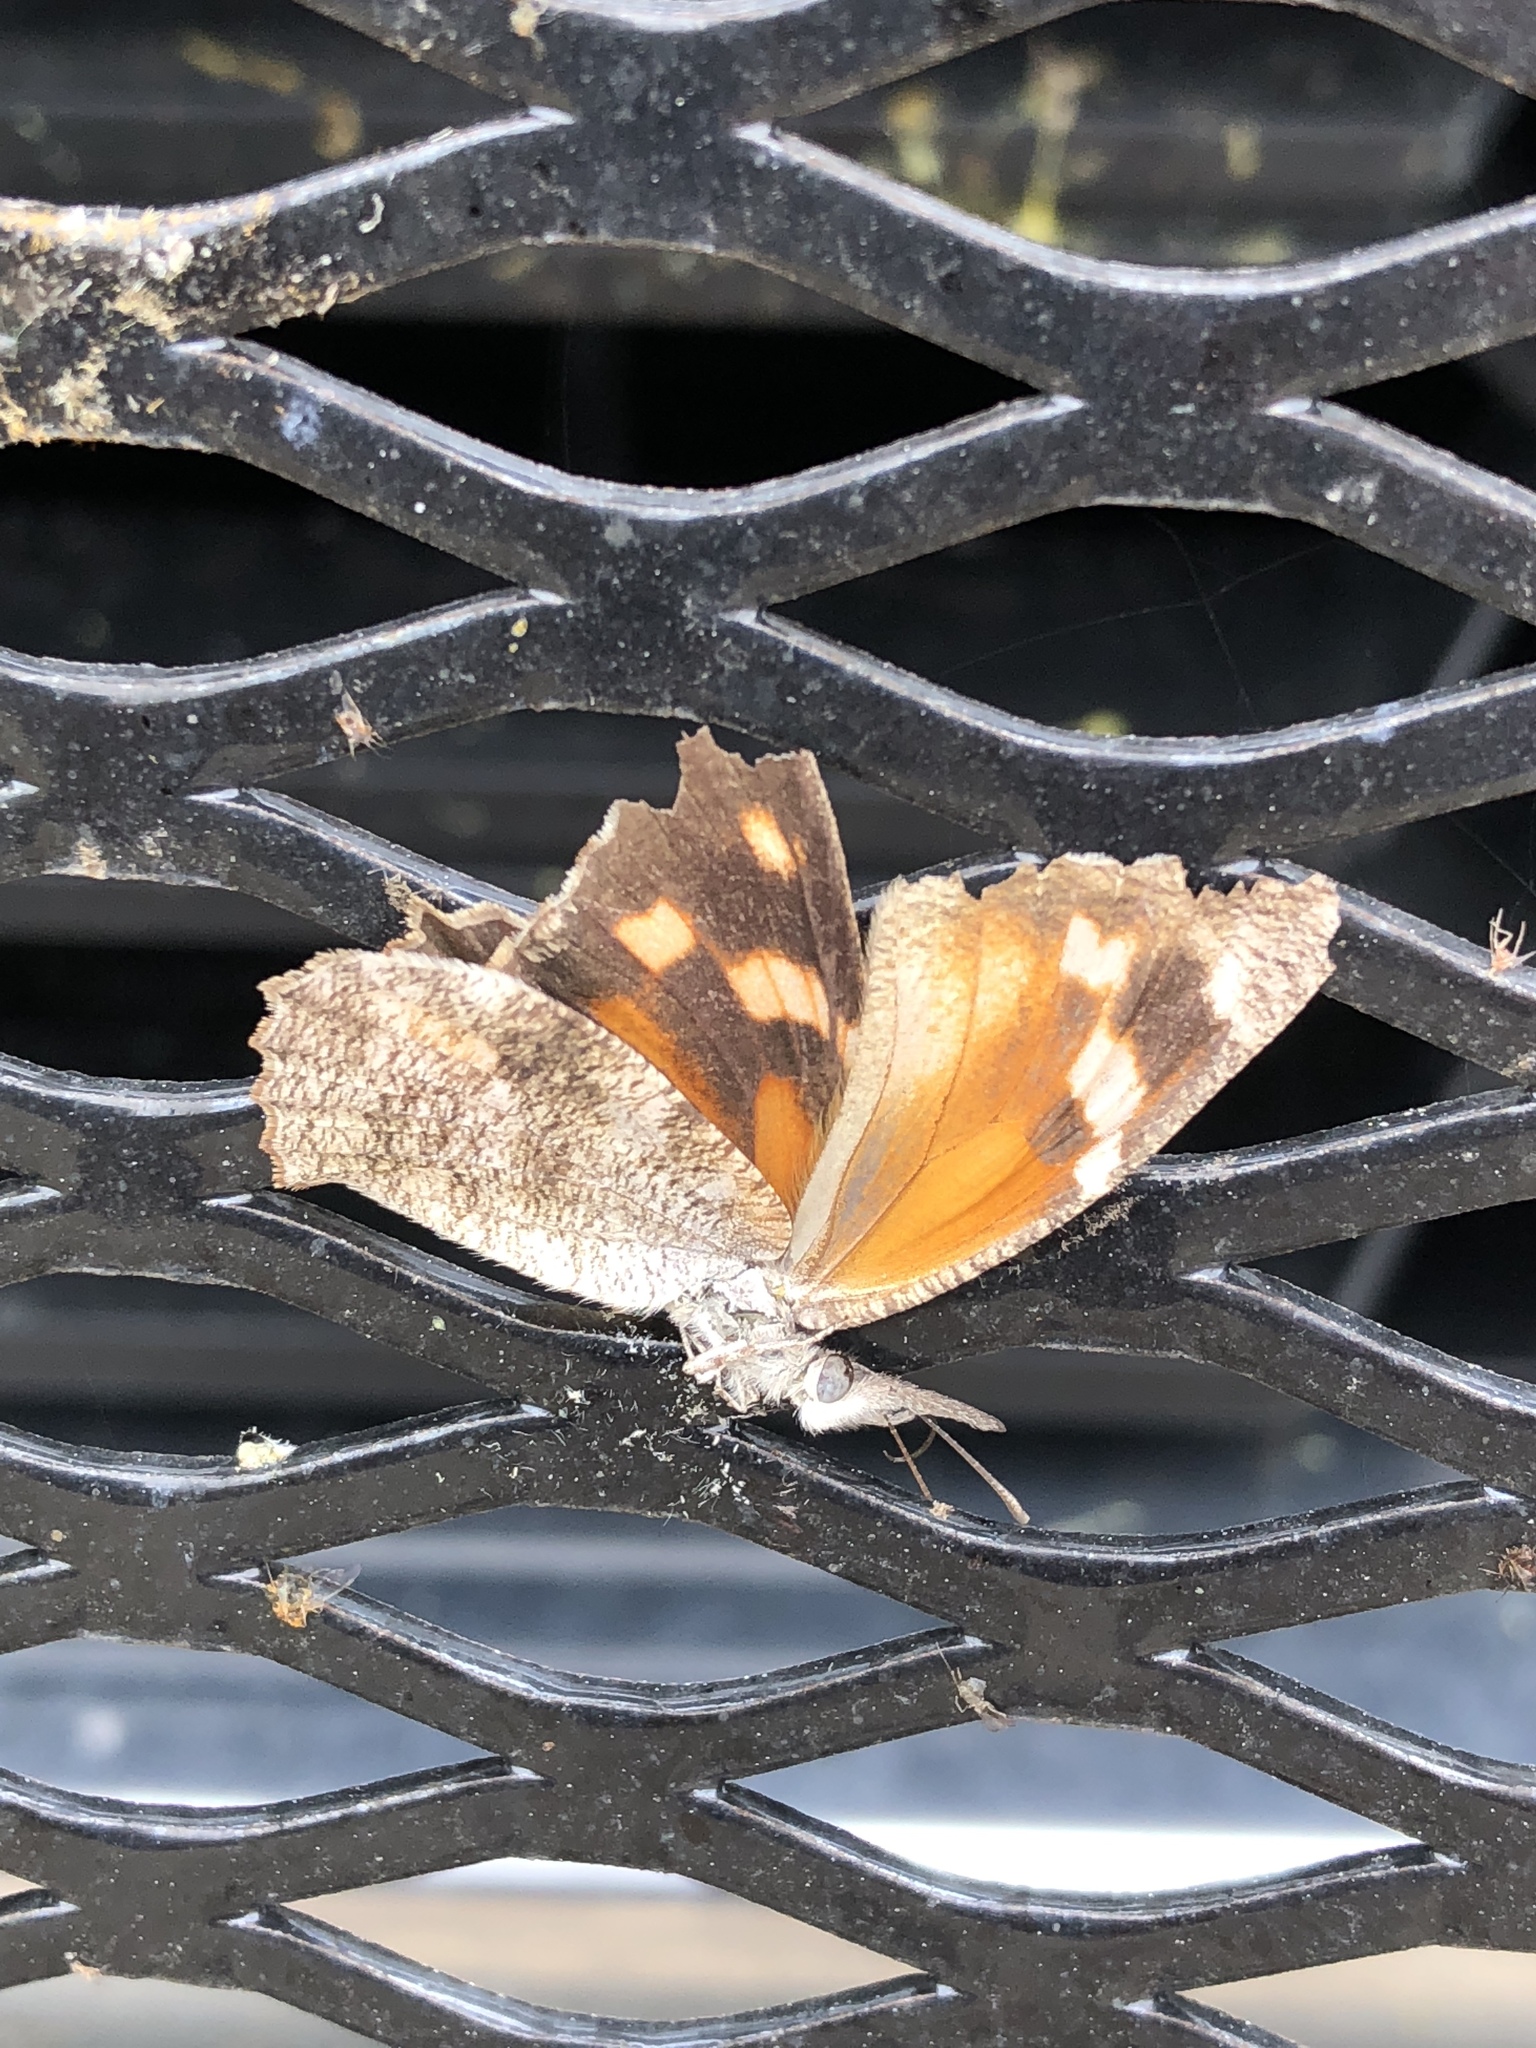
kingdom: Animalia
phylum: Arthropoda
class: Insecta
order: Lepidoptera
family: Nymphalidae
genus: Libytheana
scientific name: Libytheana carinenta
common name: American snout
